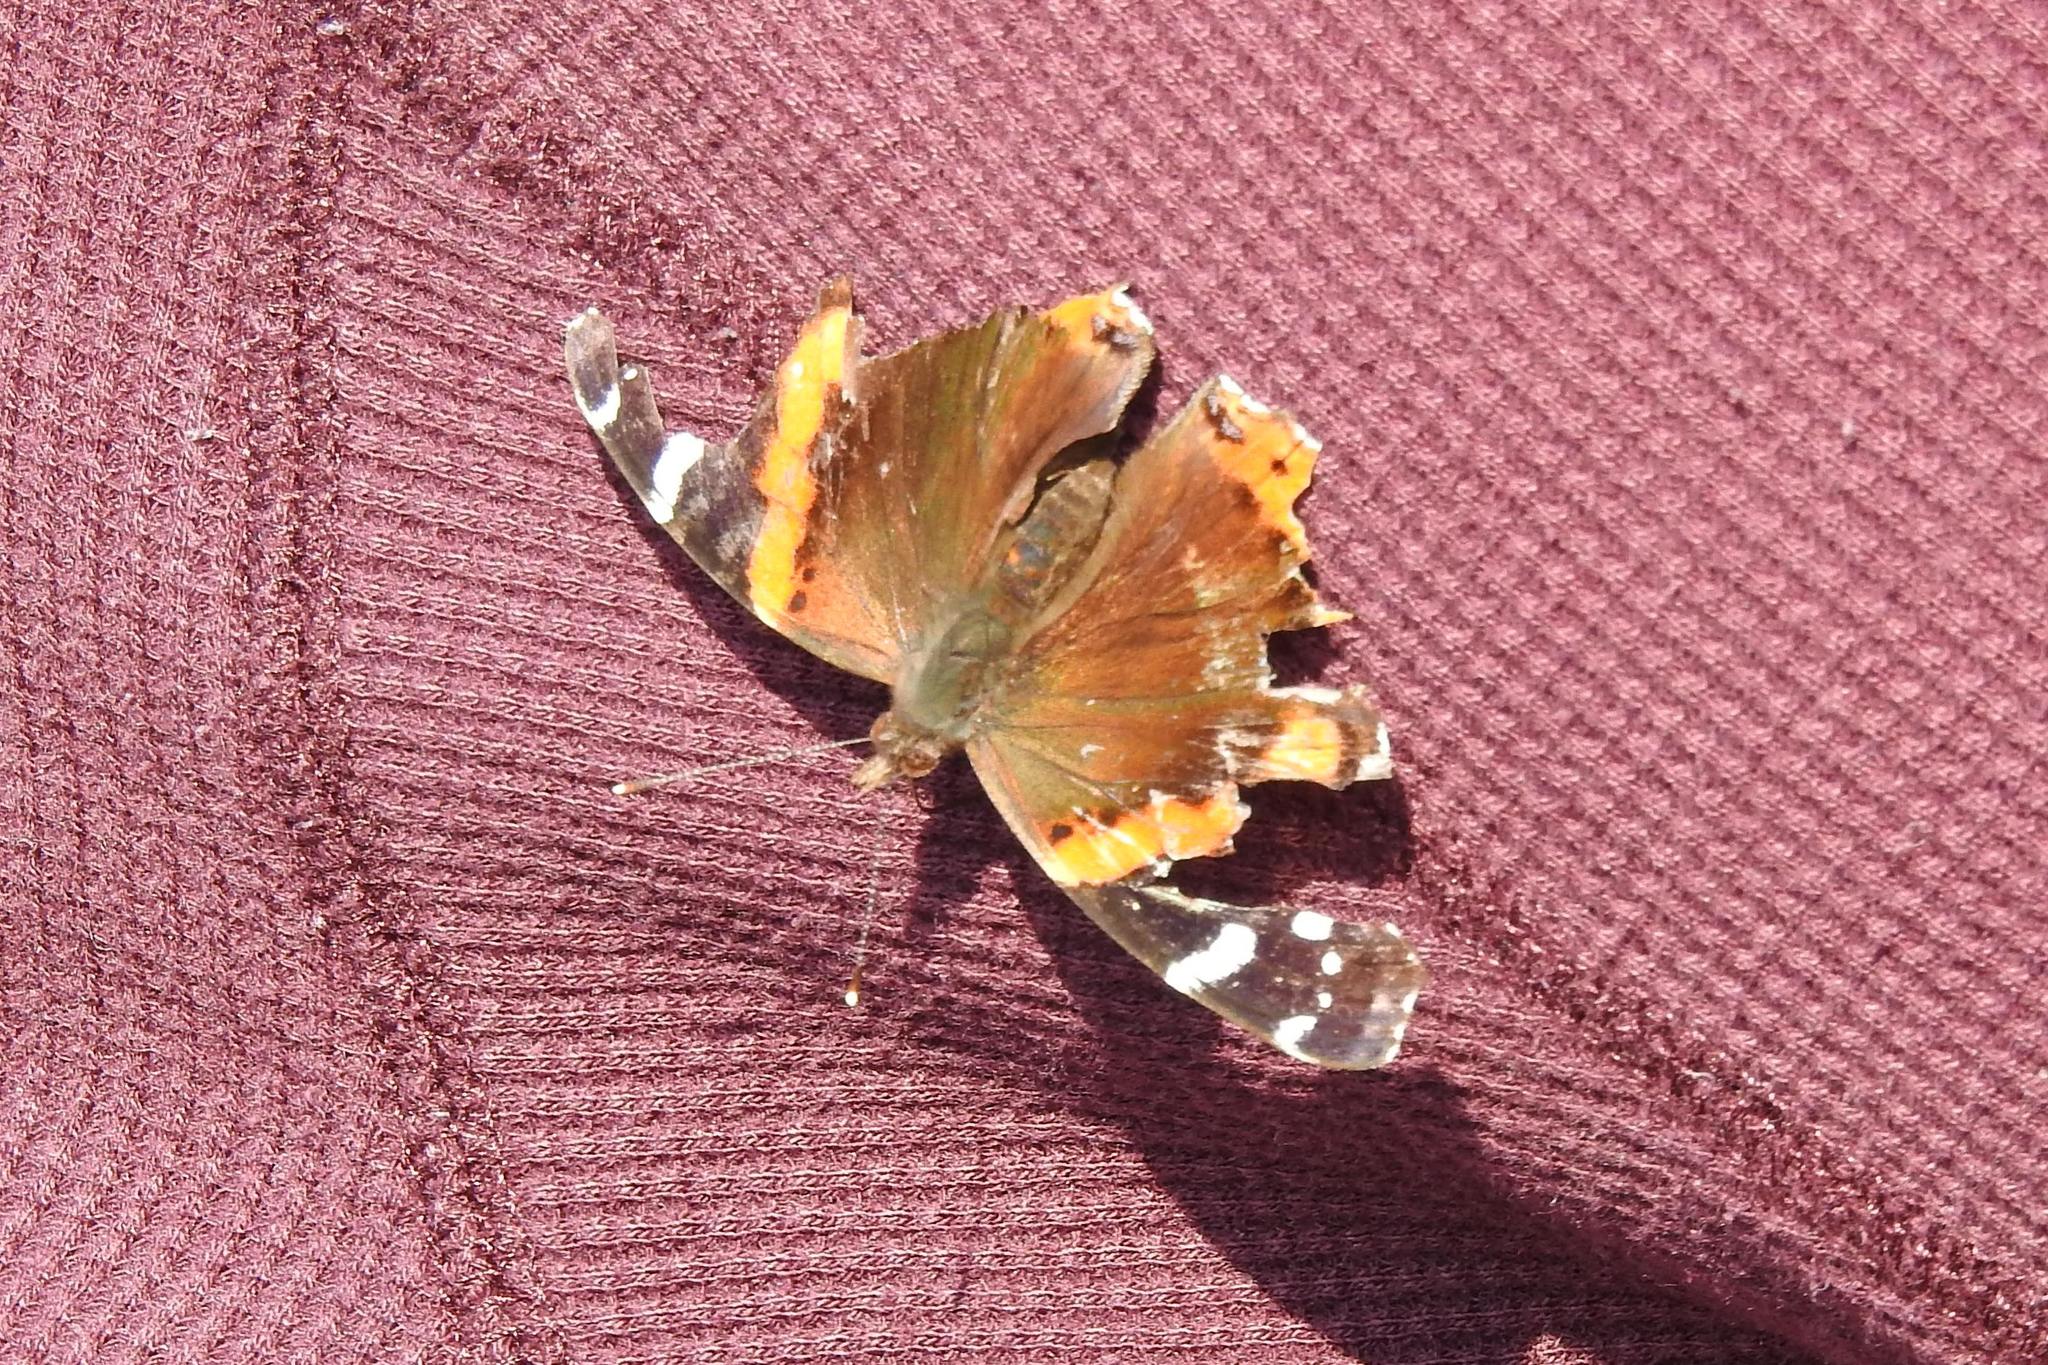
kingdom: Animalia
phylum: Arthropoda
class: Insecta
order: Lepidoptera
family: Nymphalidae
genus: Vanessa
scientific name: Vanessa atalanta
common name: Red admiral
